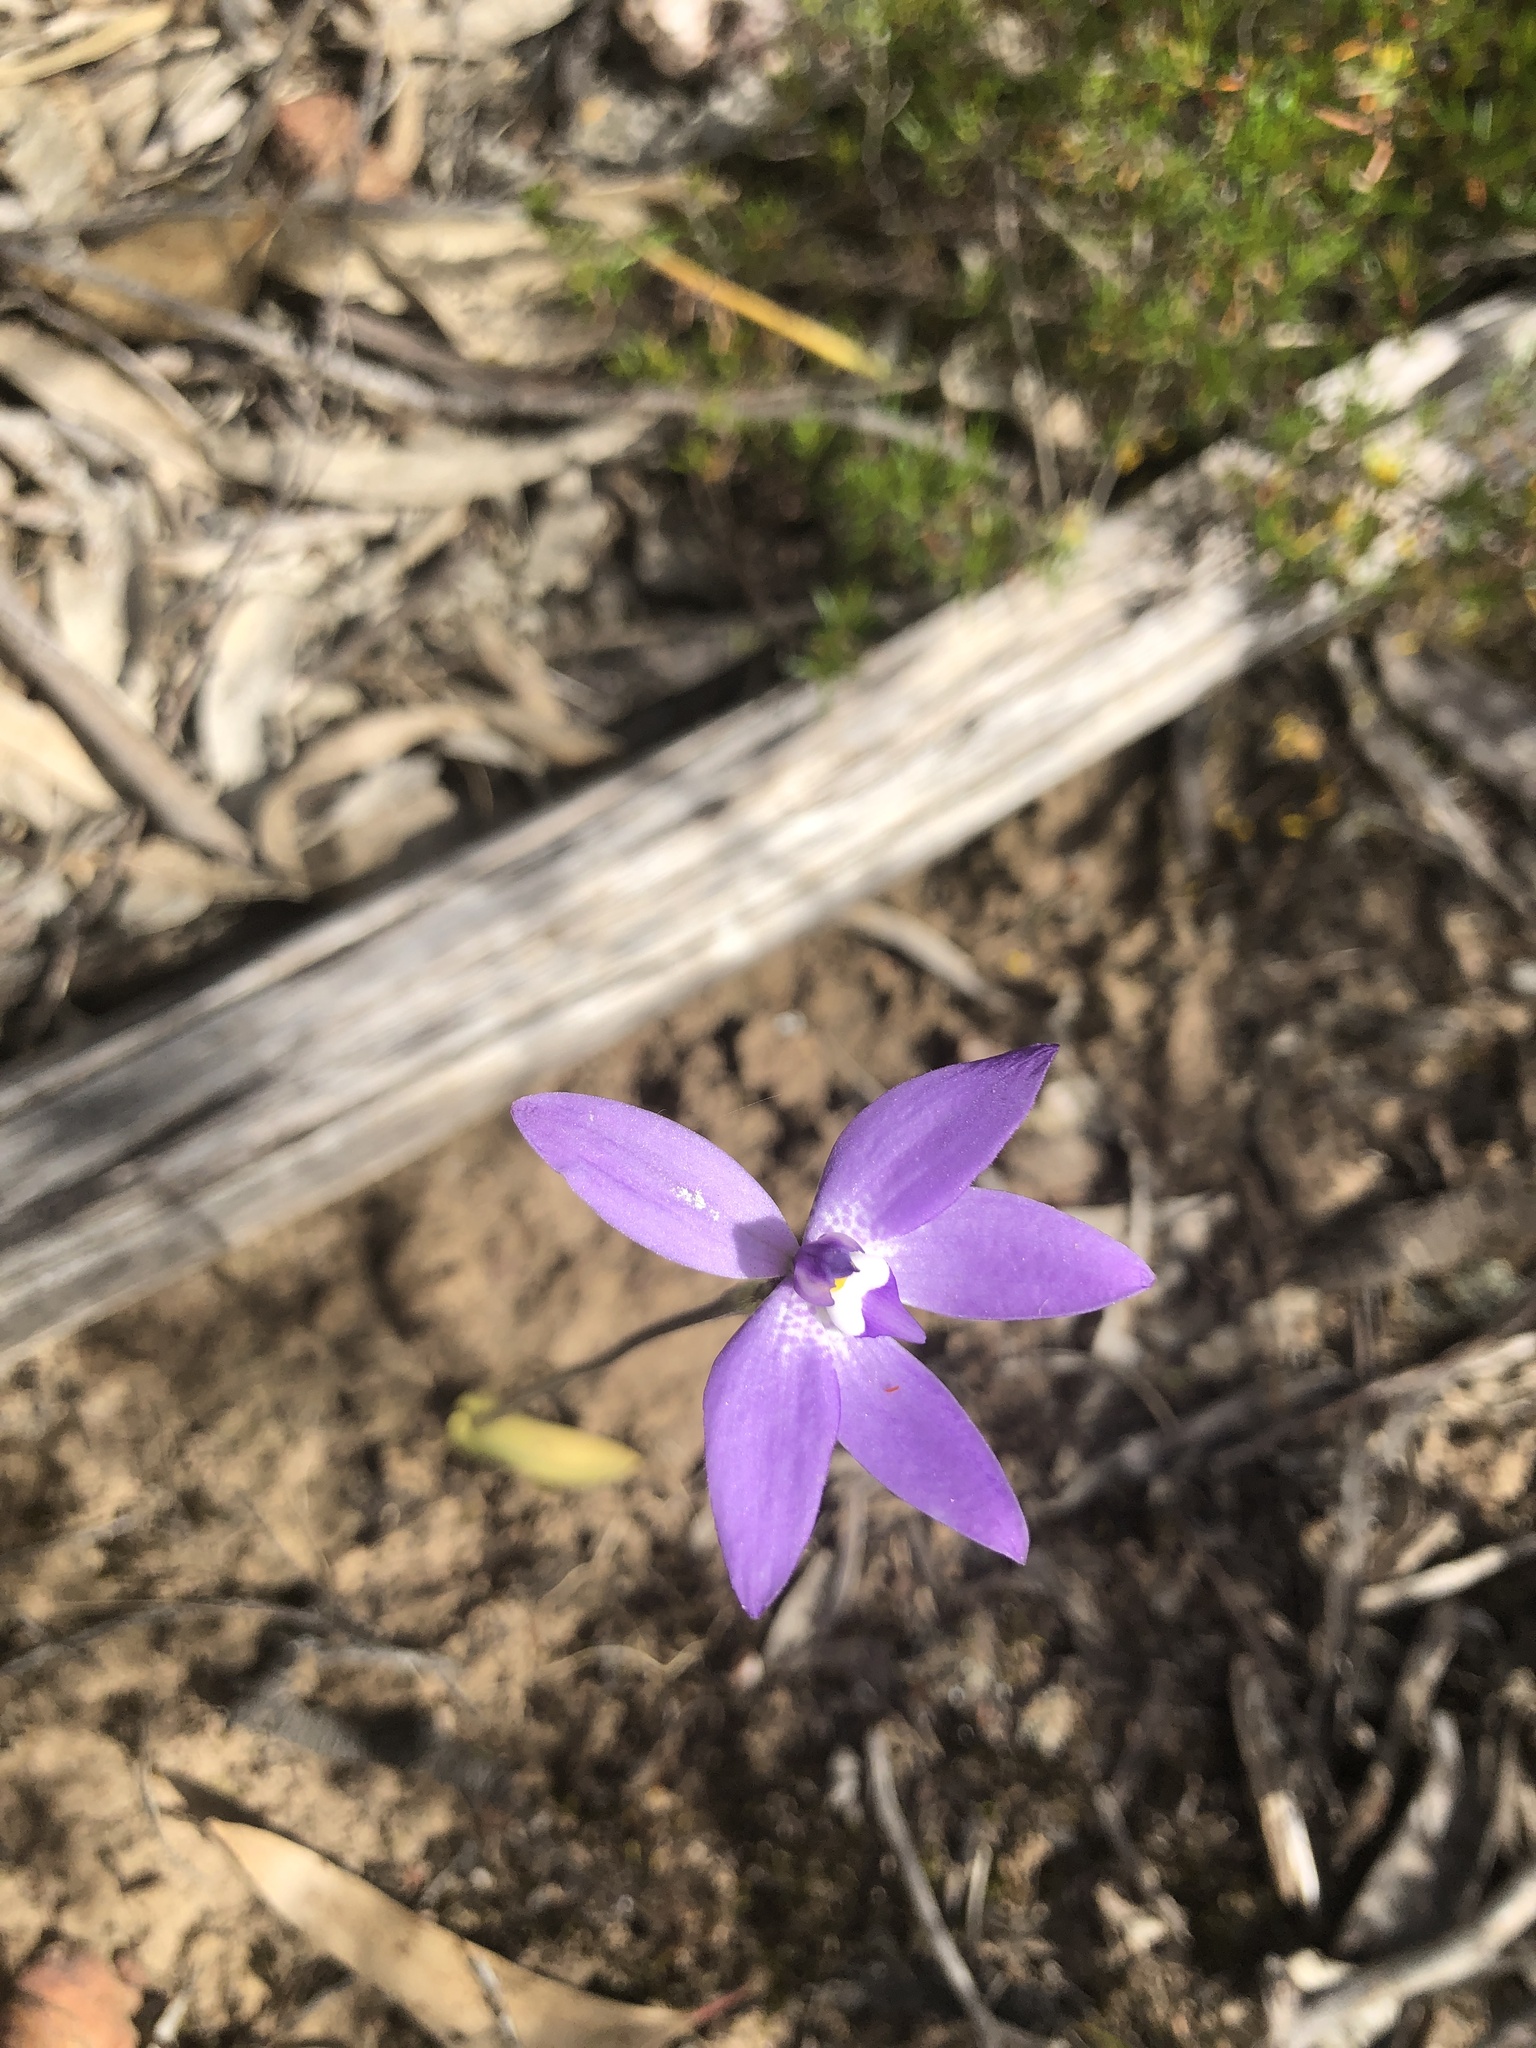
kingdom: Plantae
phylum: Tracheophyta
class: Liliopsida
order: Asparagales
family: Orchidaceae
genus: Caladenia
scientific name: Caladenia major
